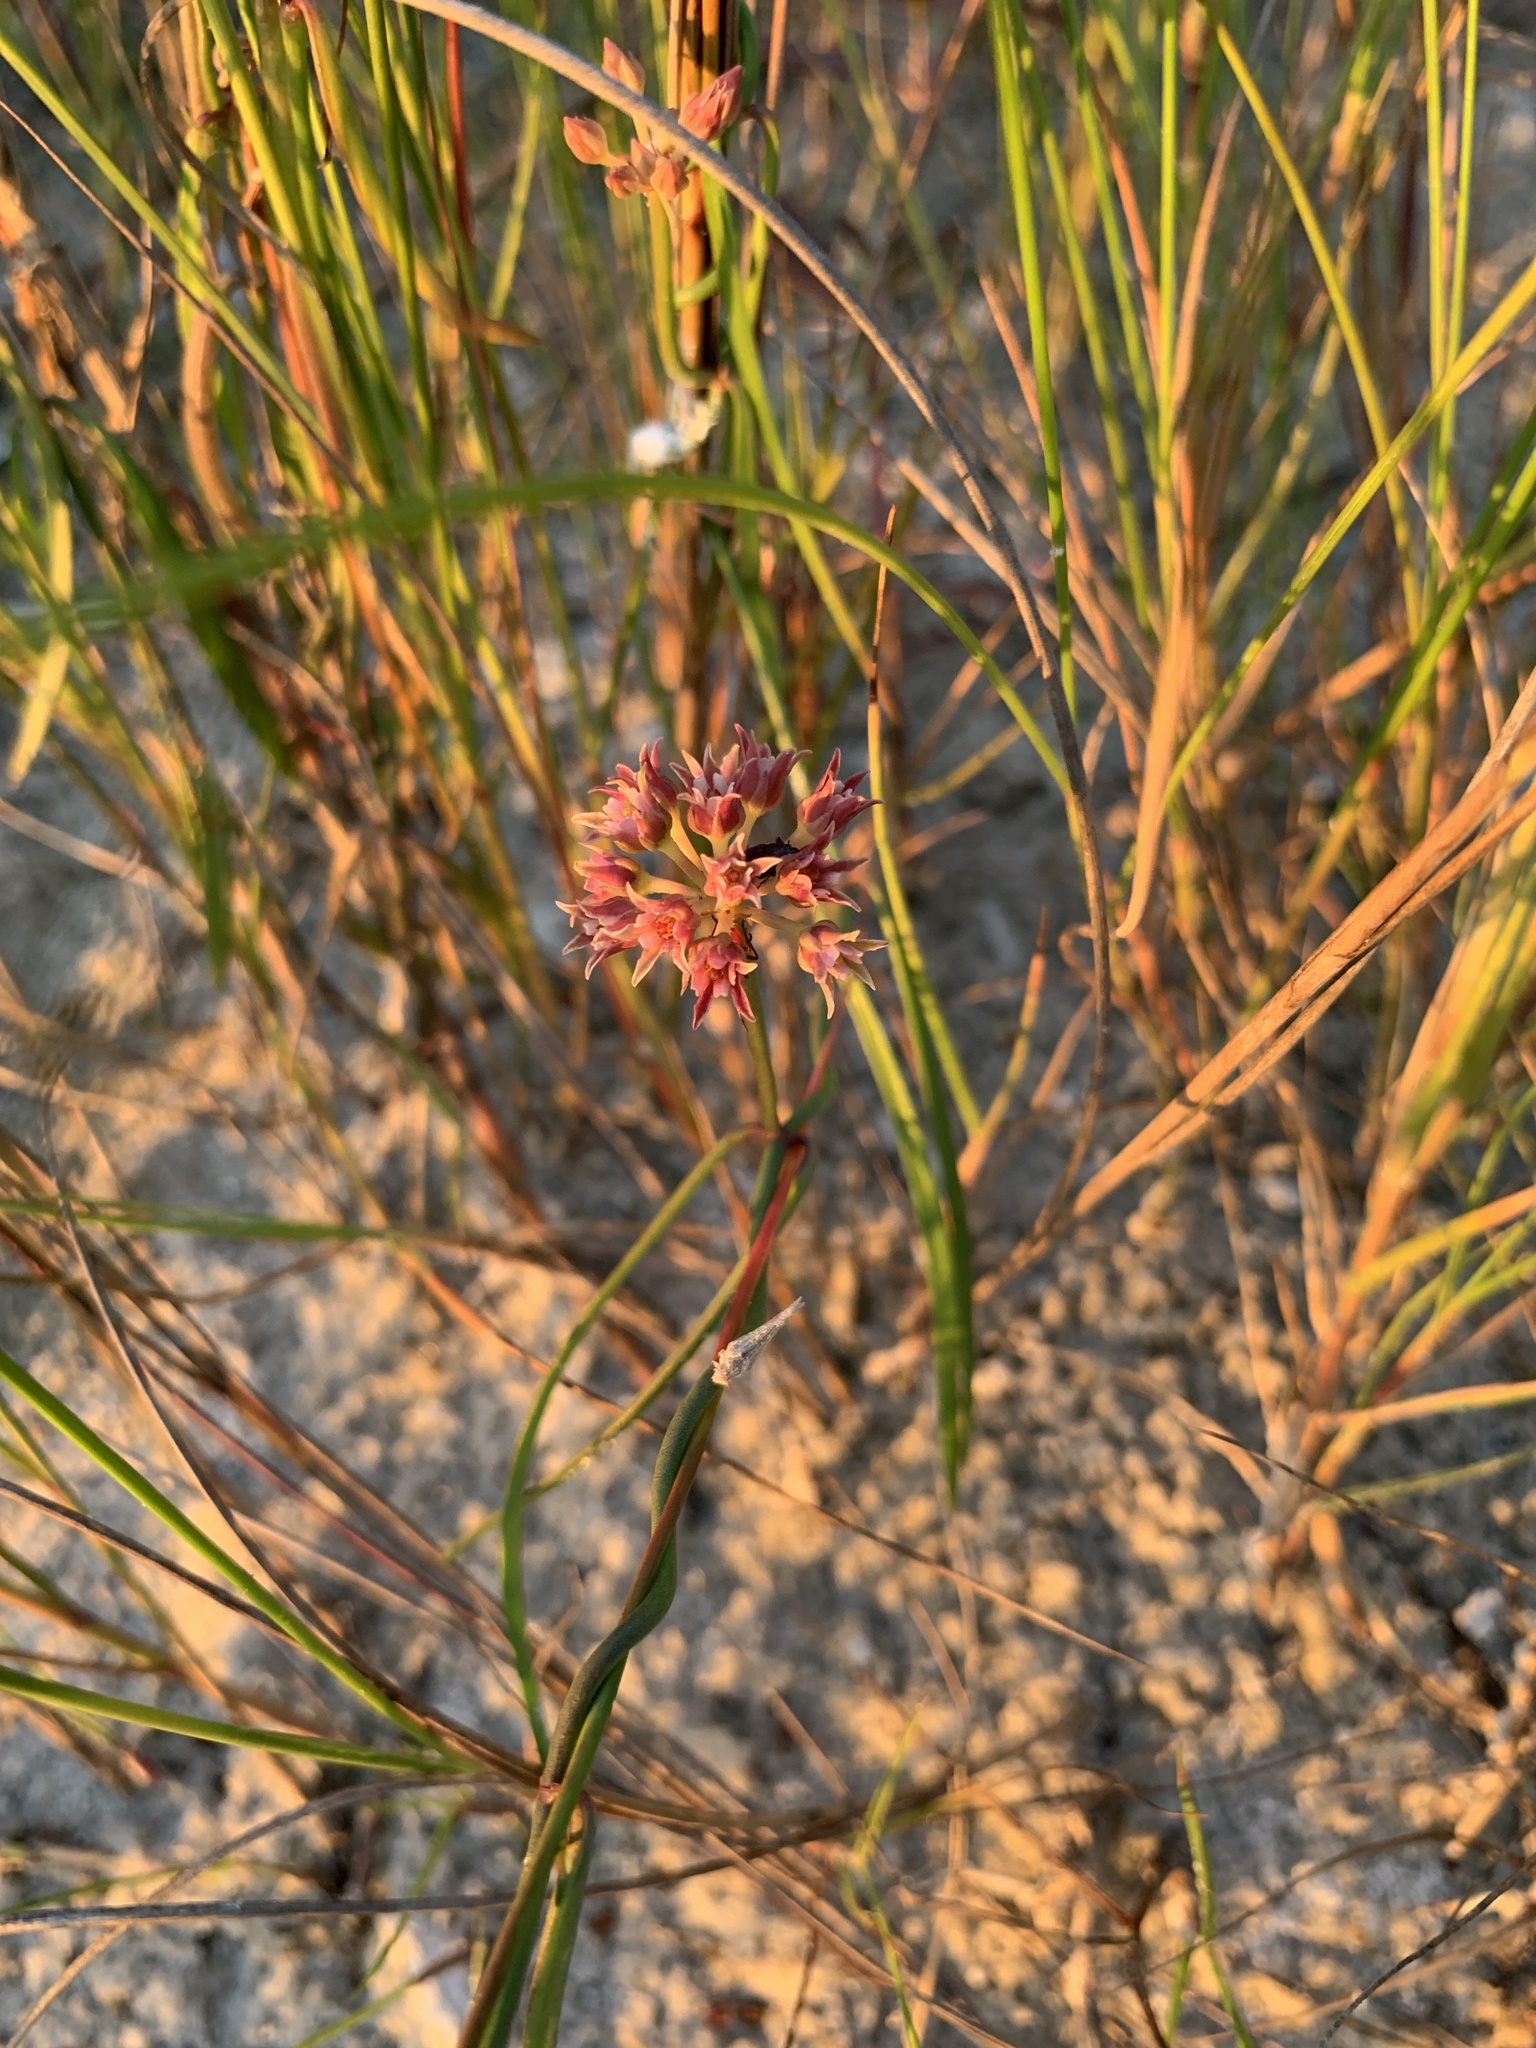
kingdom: Plantae
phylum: Tracheophyta
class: Magnoliopsida
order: Gentianales
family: Apocynaceae
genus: Pattalias
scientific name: Pattalias
